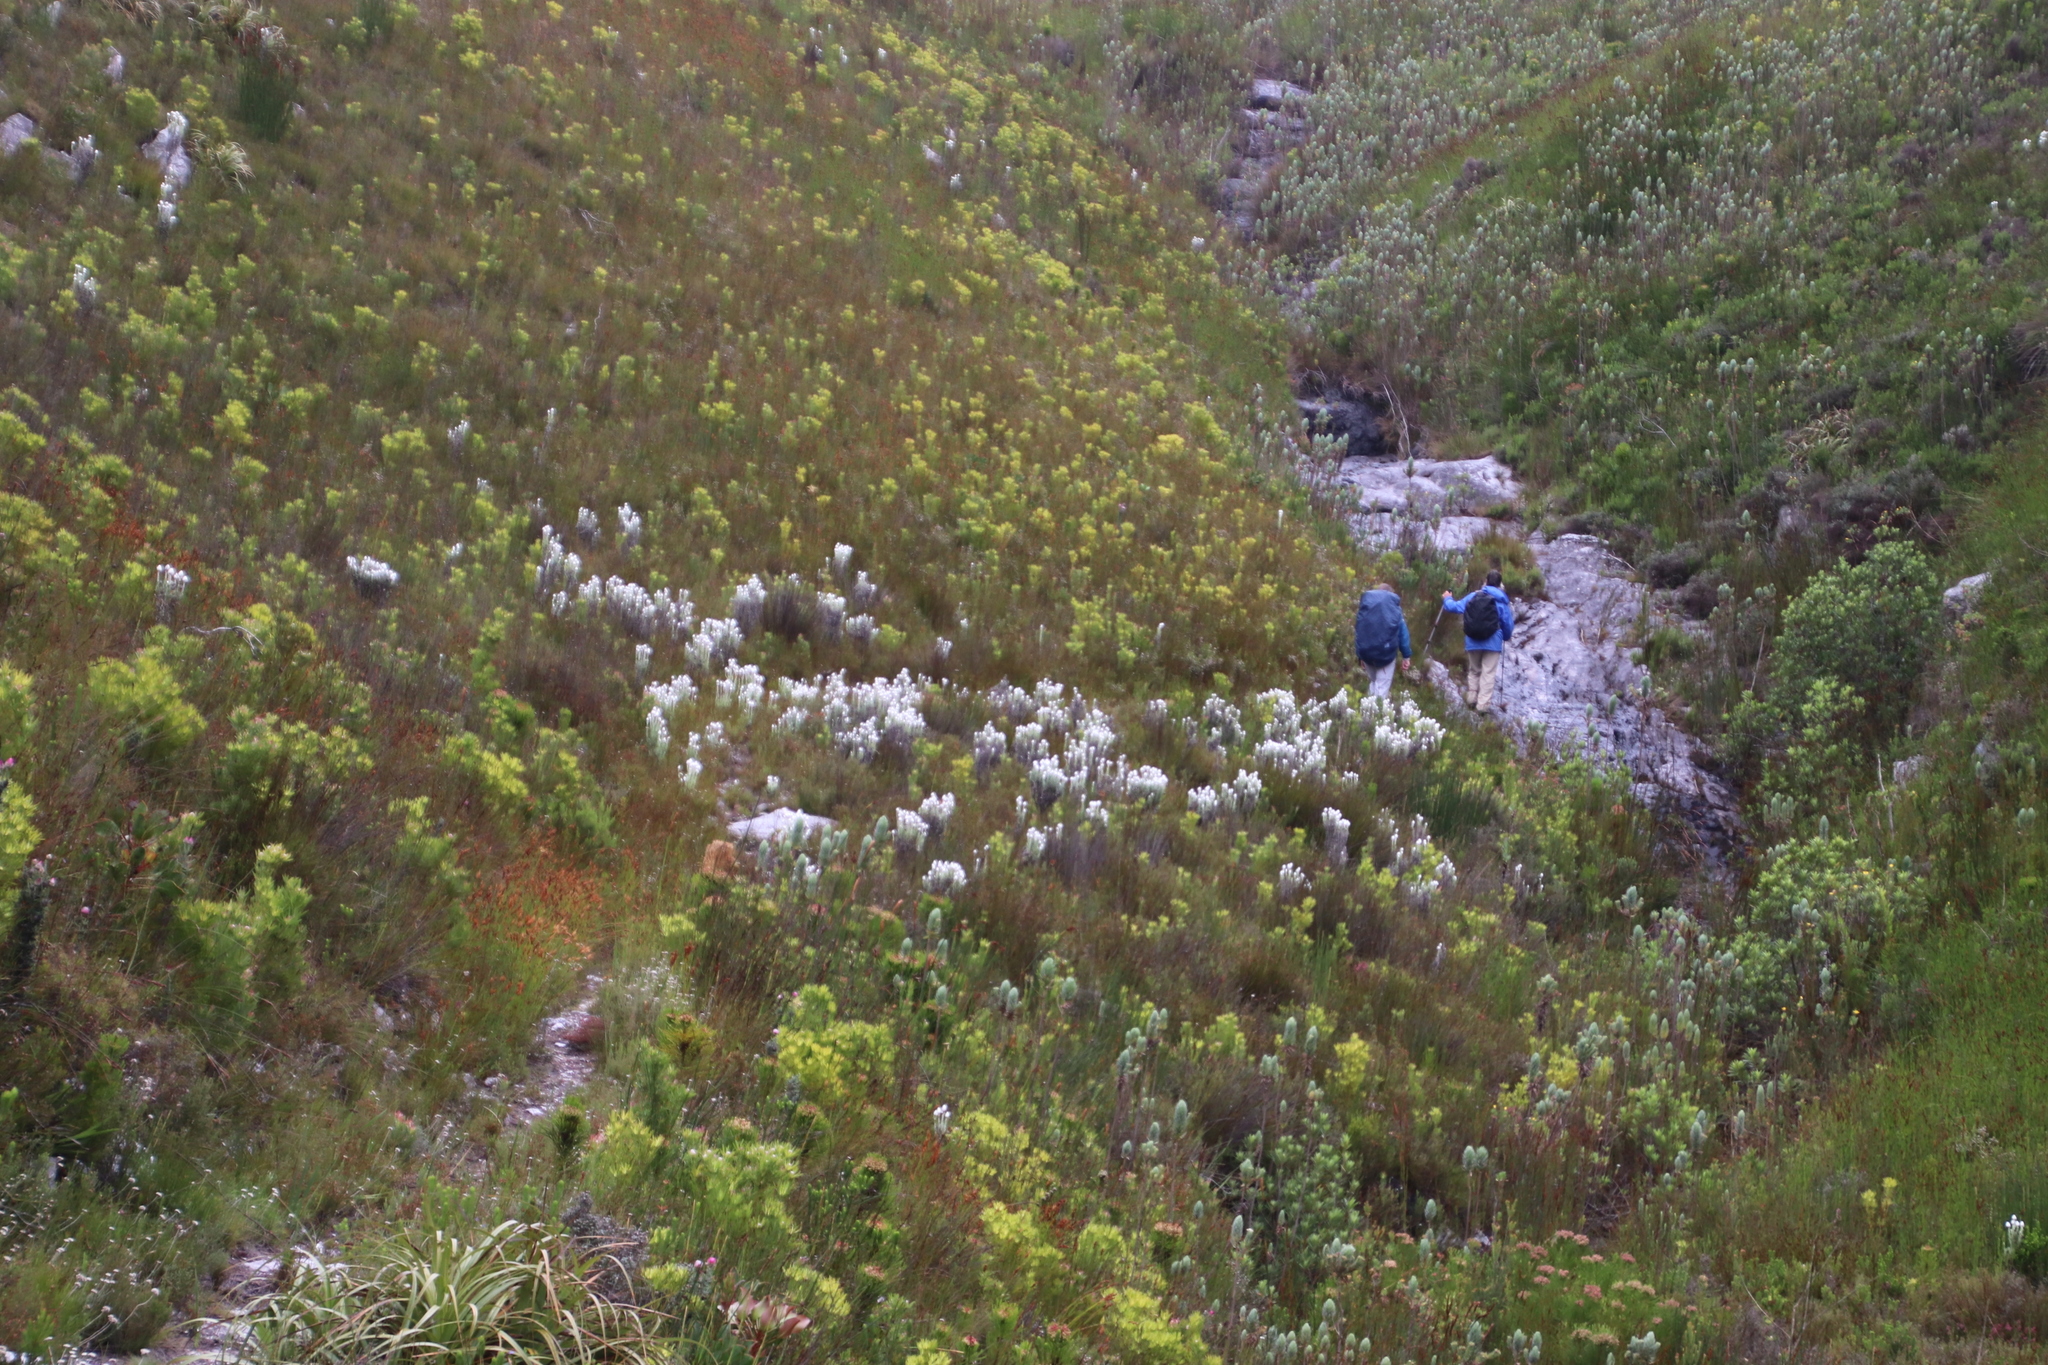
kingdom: Plantae
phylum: Tracheophyta
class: Magnoliopsida
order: Asterales
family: Asteraceae
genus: Syncarpha
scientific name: Syncarpha vestita
